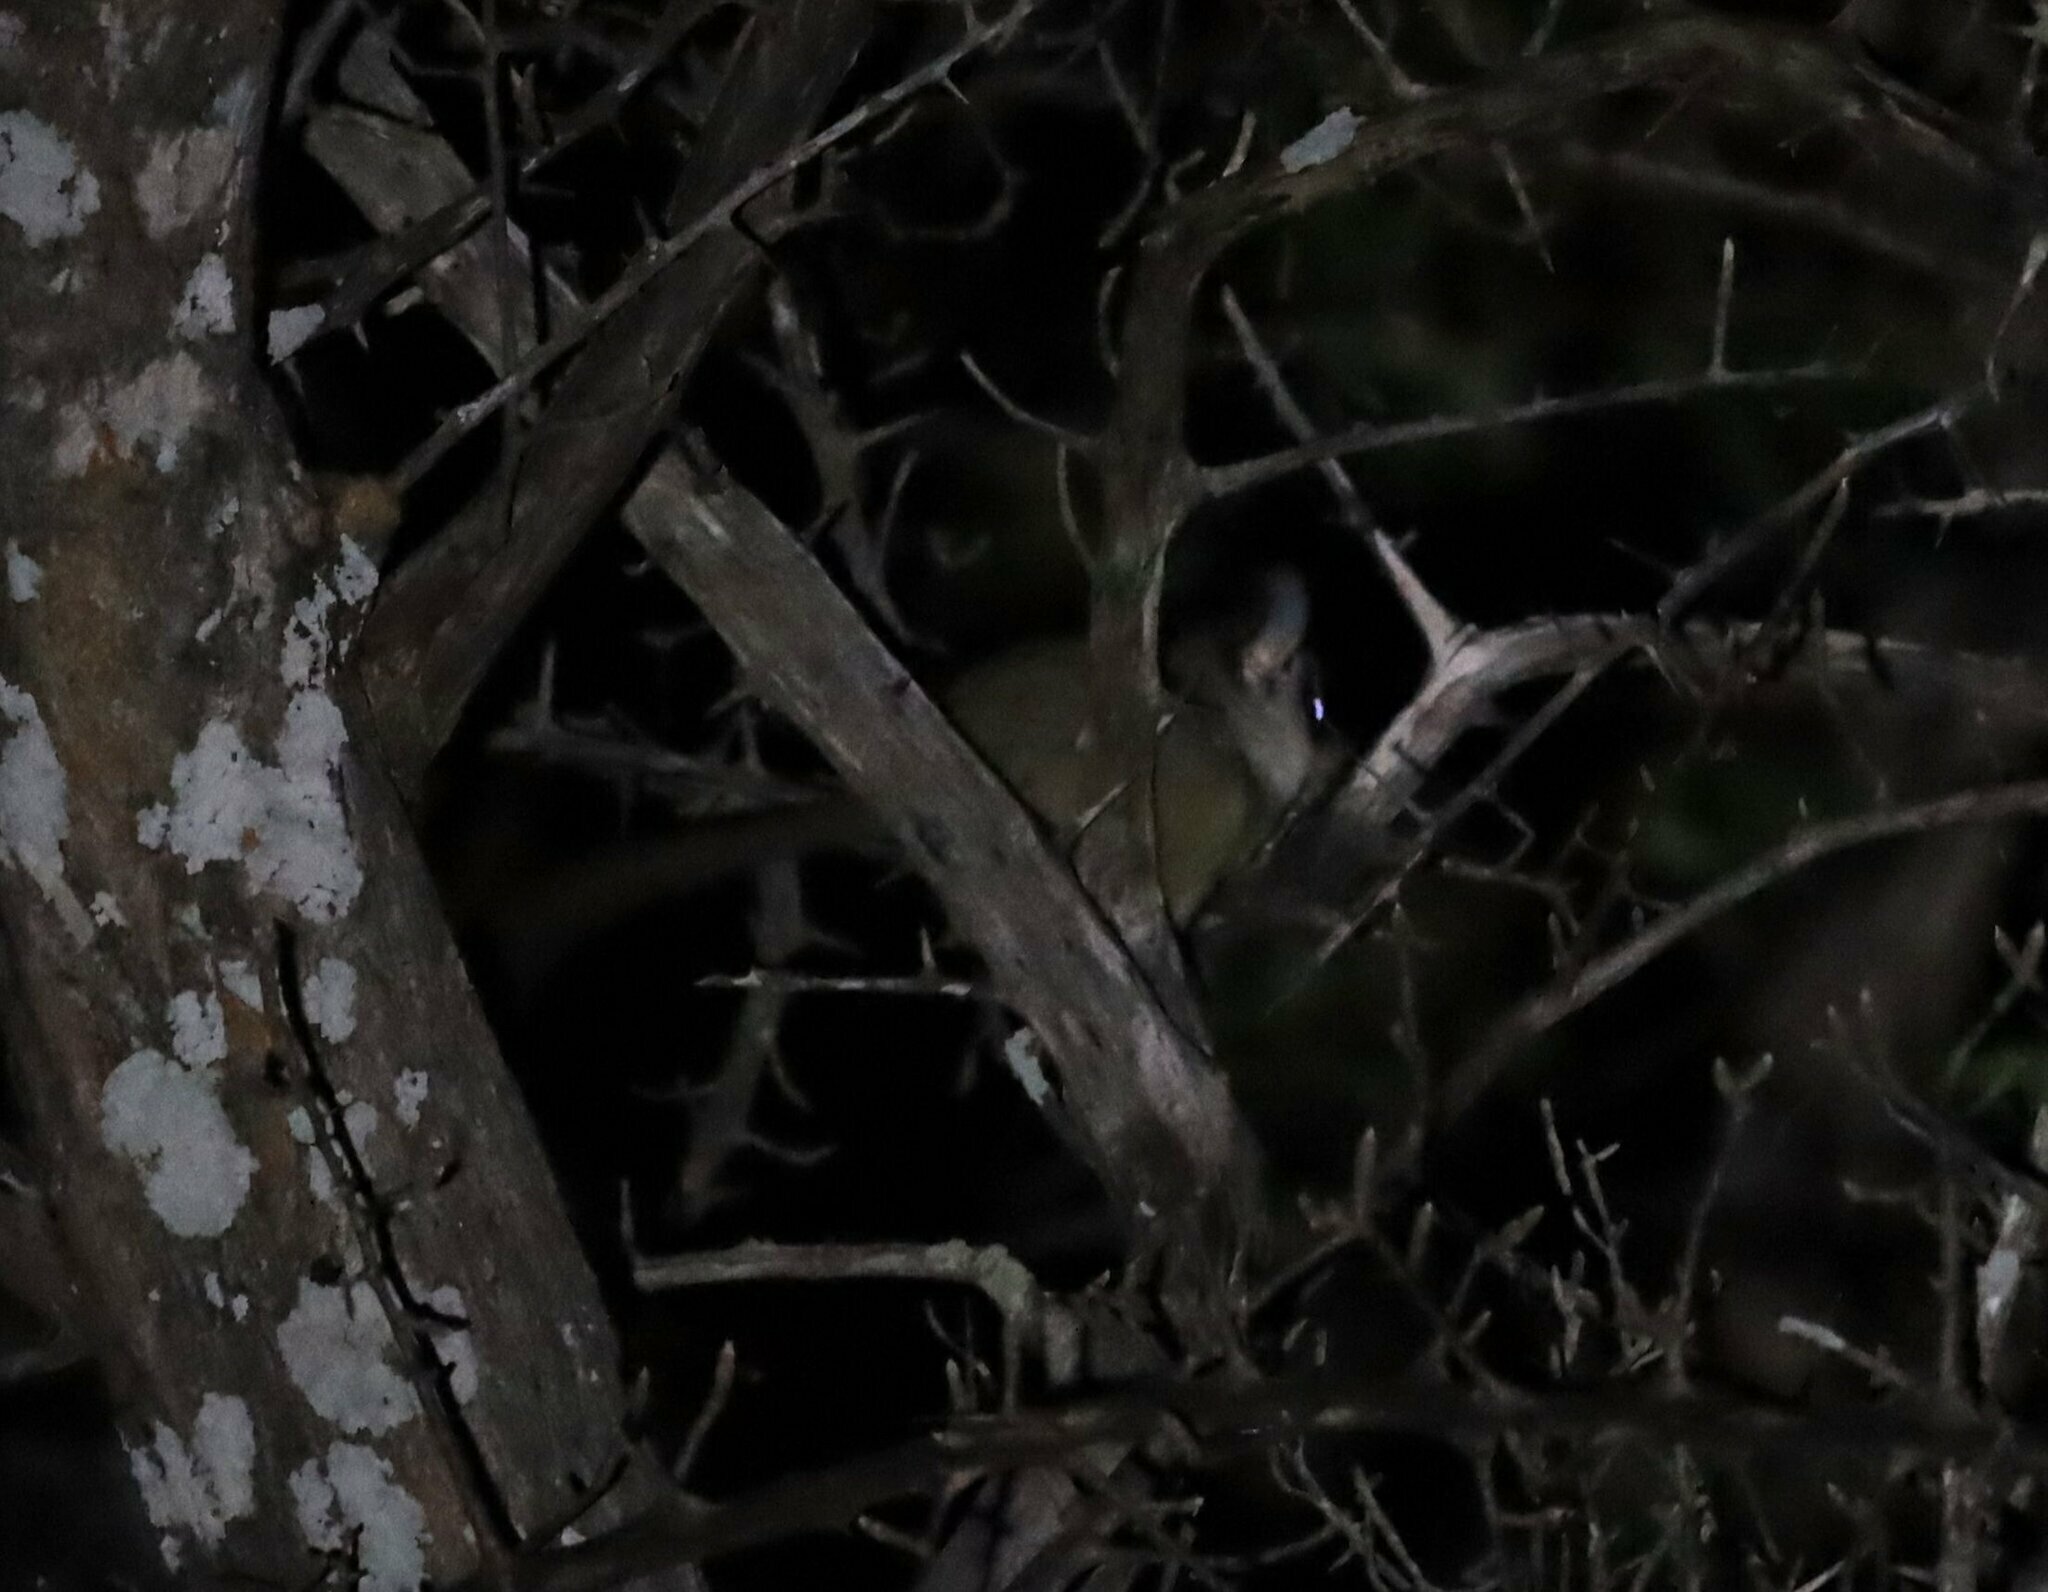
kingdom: Animalia
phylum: Chordata
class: Mammalia
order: Primates
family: Galagidae
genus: Galago
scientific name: Galago moholi
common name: Moholi bushbaby
